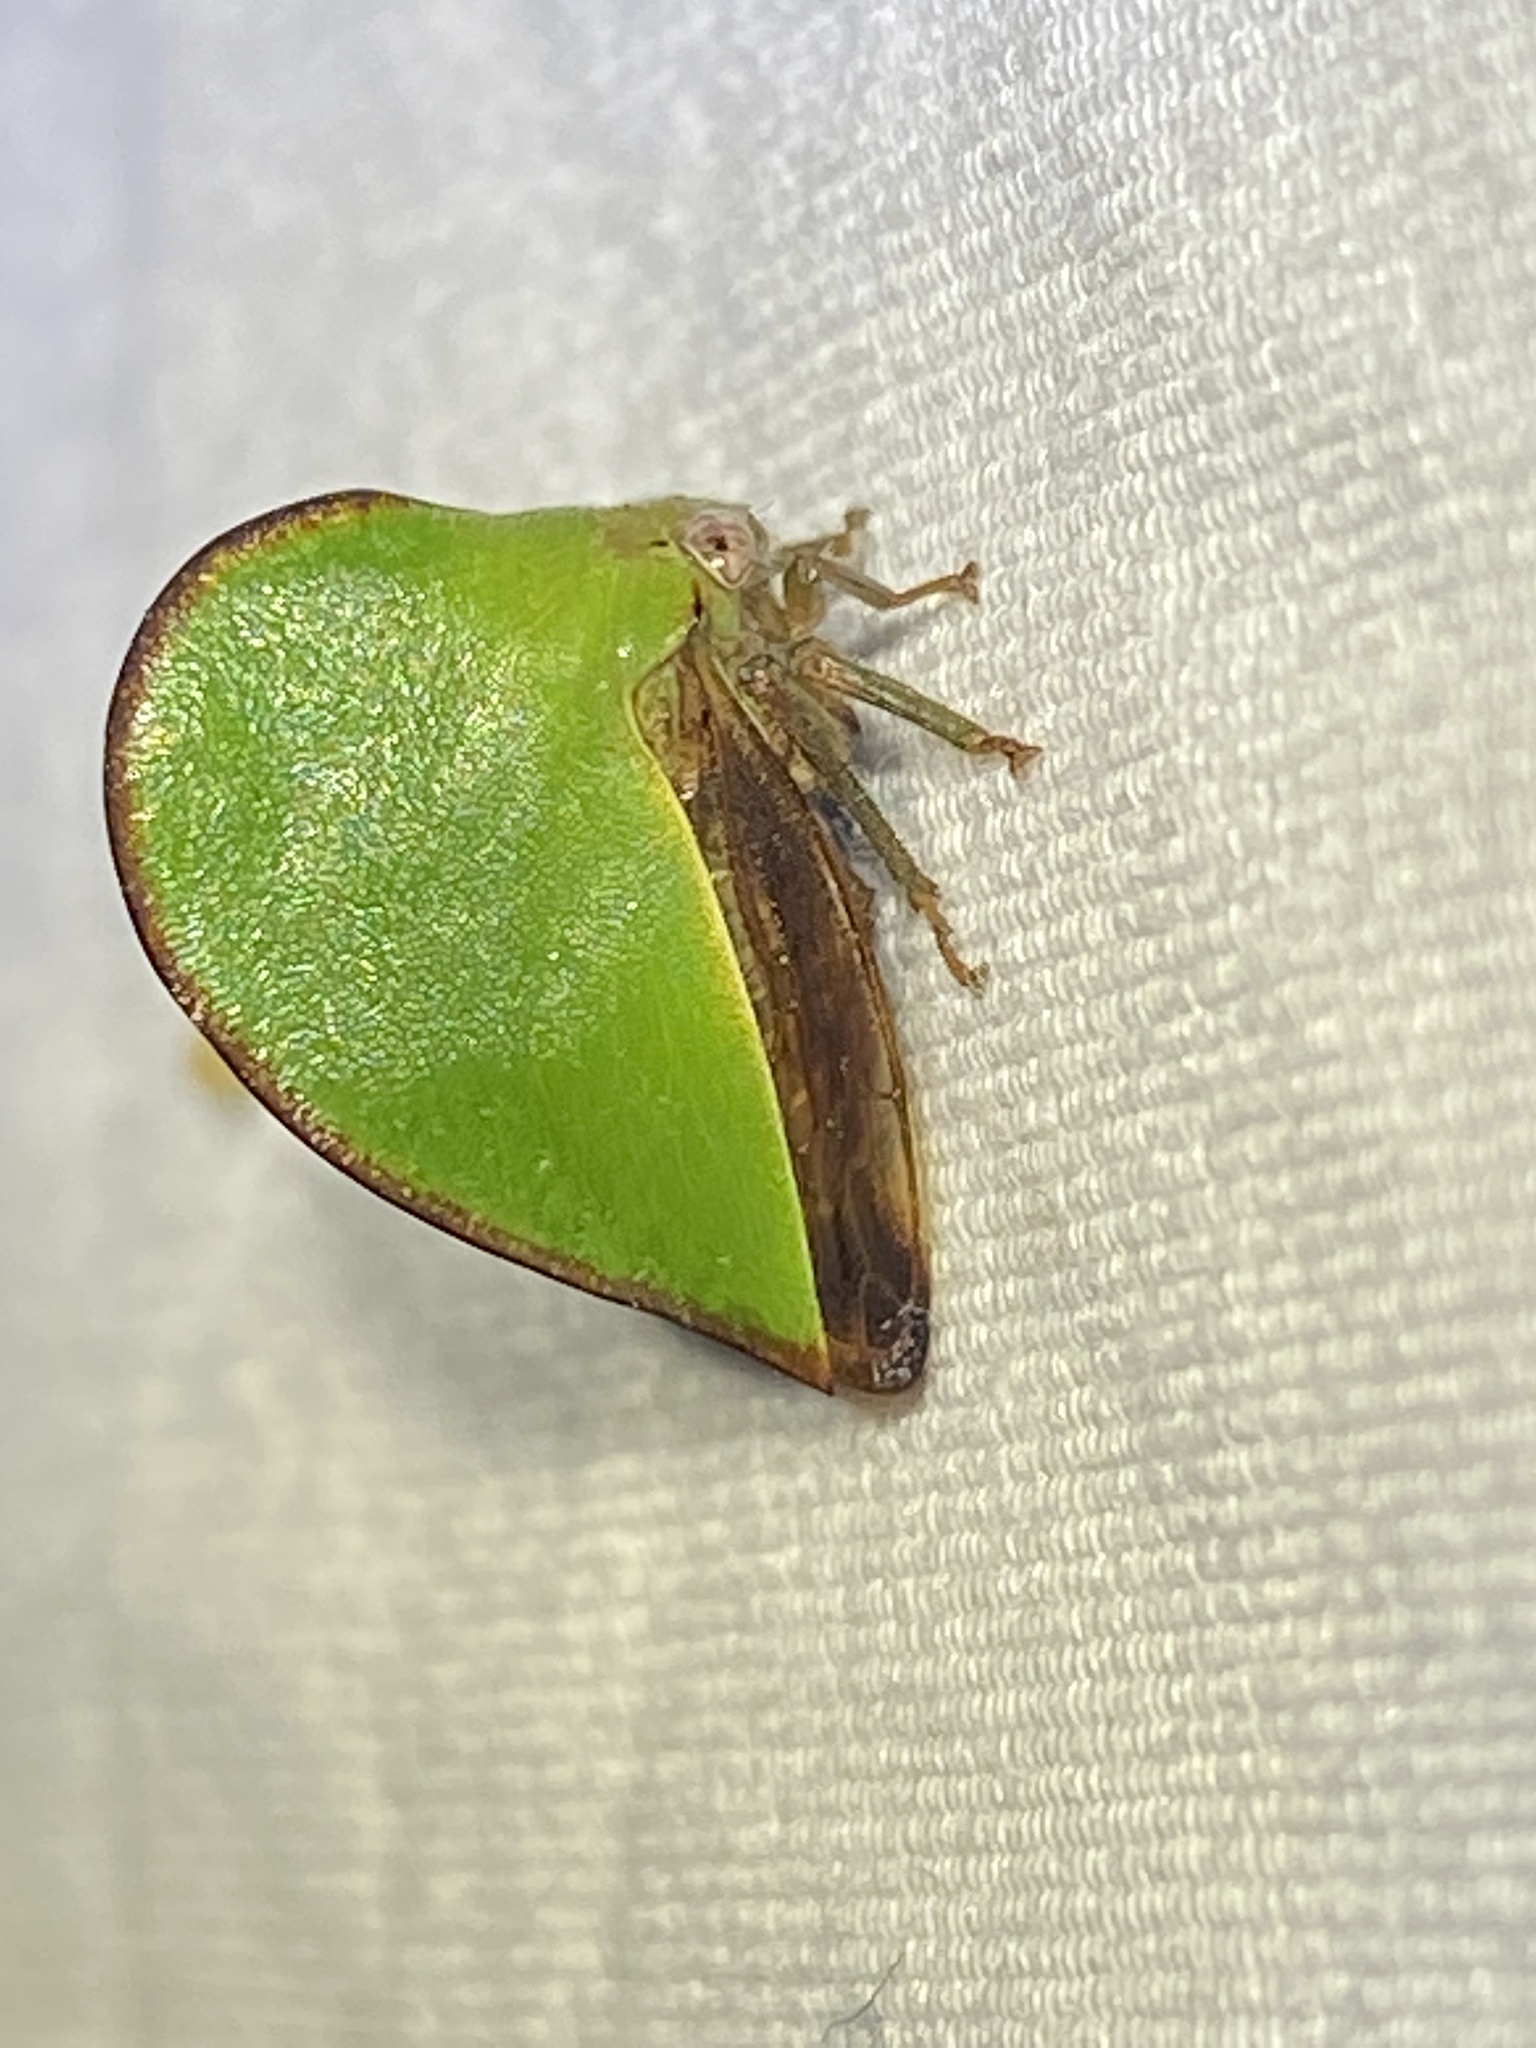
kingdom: Animalia
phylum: Arthropoda
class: Insecta
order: Hemiptera
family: Membracidae
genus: Archasia
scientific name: Archasia belfragei
